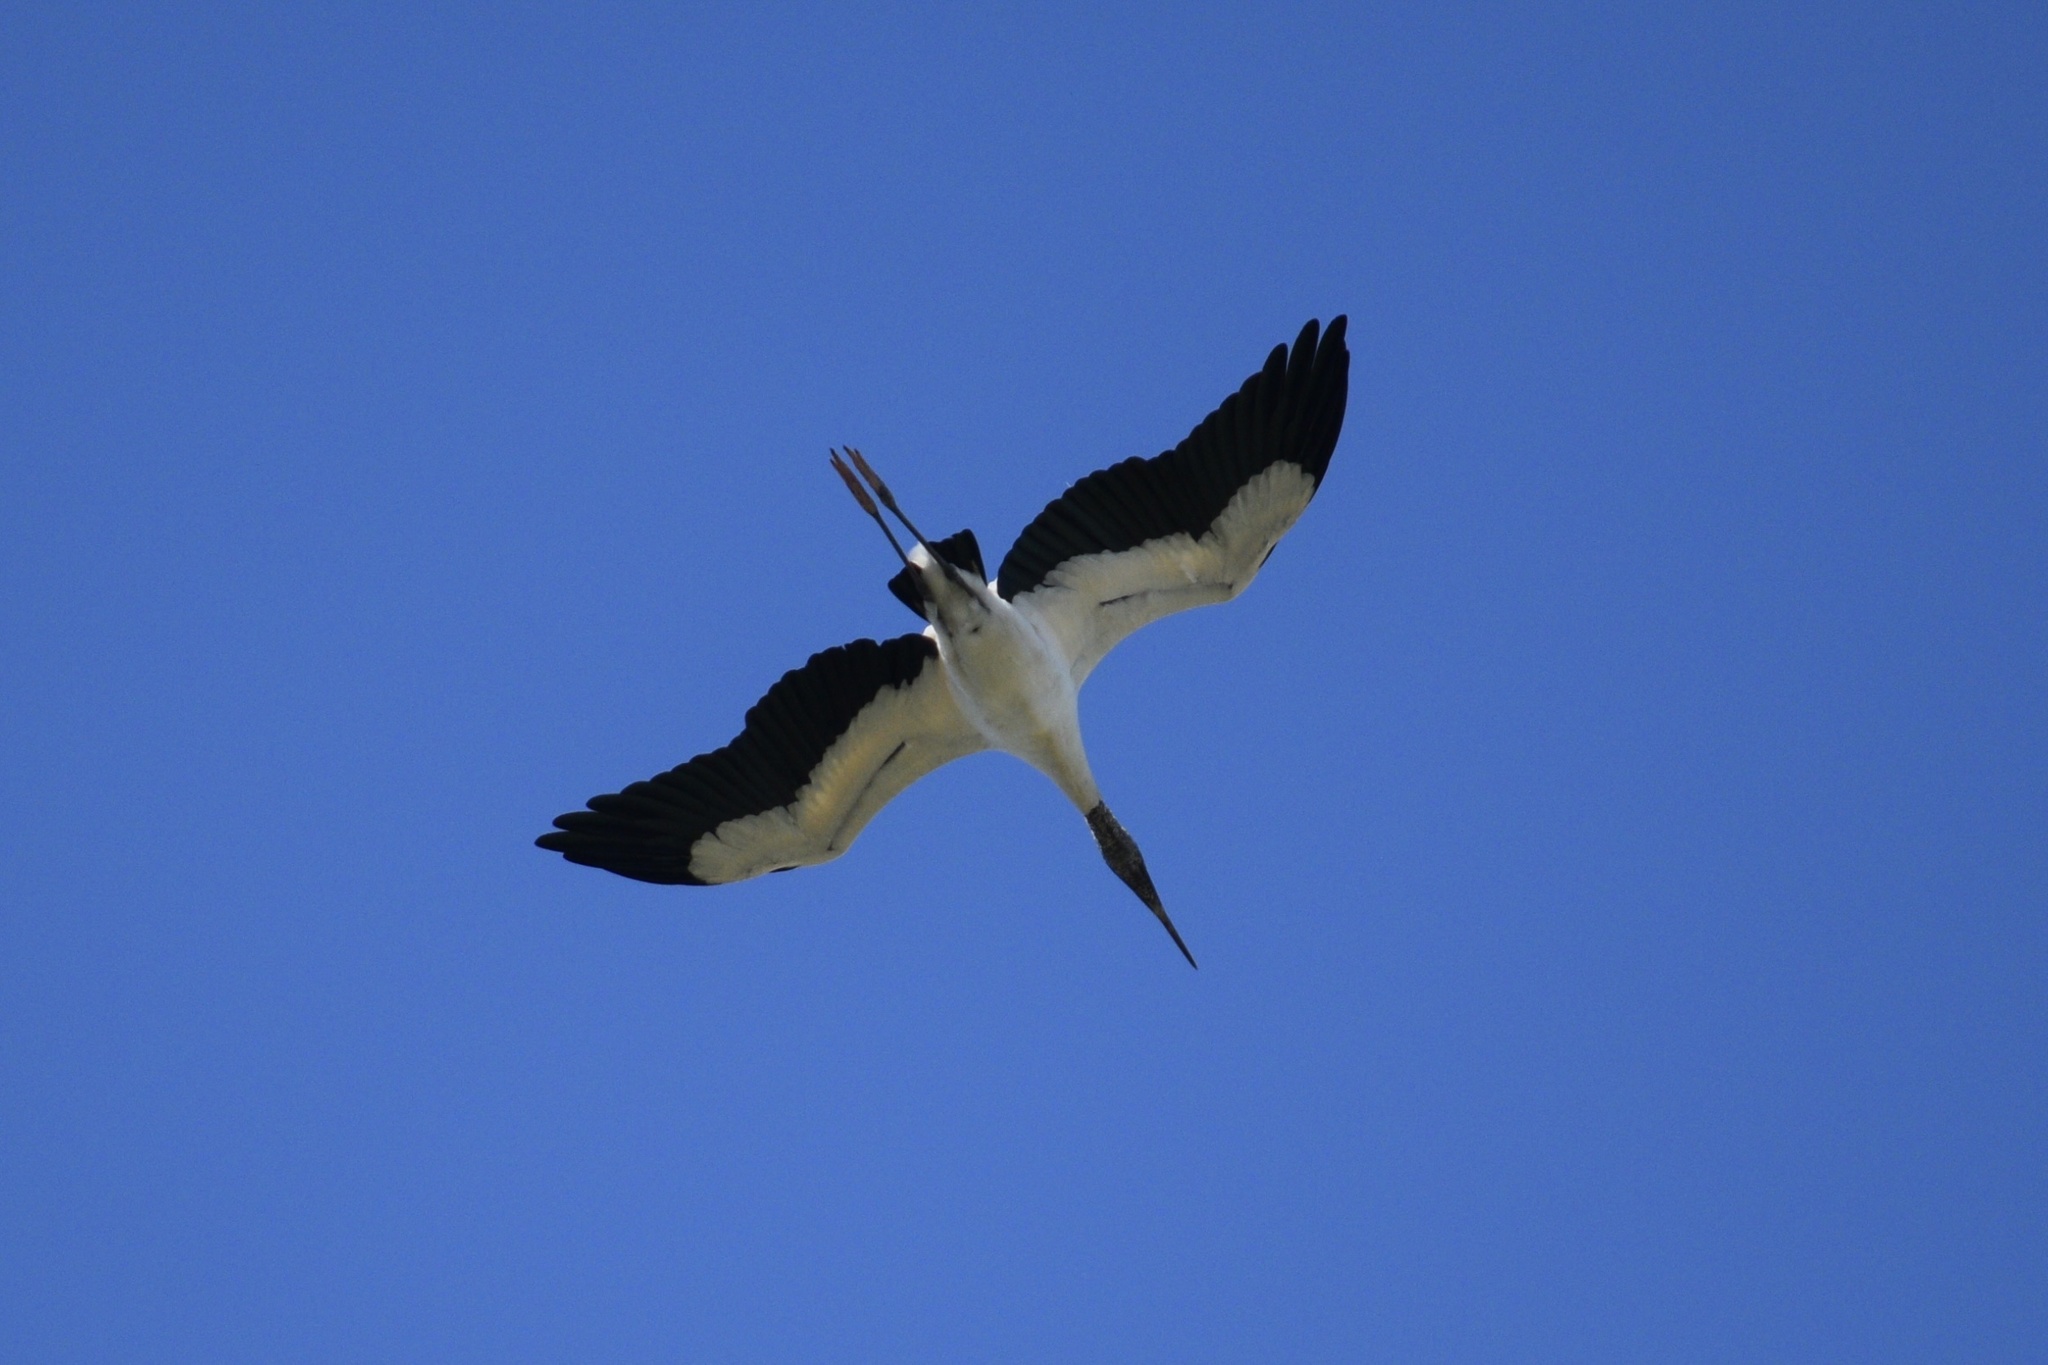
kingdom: Animalia
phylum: Chordata
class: Aves
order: Ciconiiformes
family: Ciconiidae
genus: Mycteria
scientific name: Mycteria americana
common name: Wood stork
